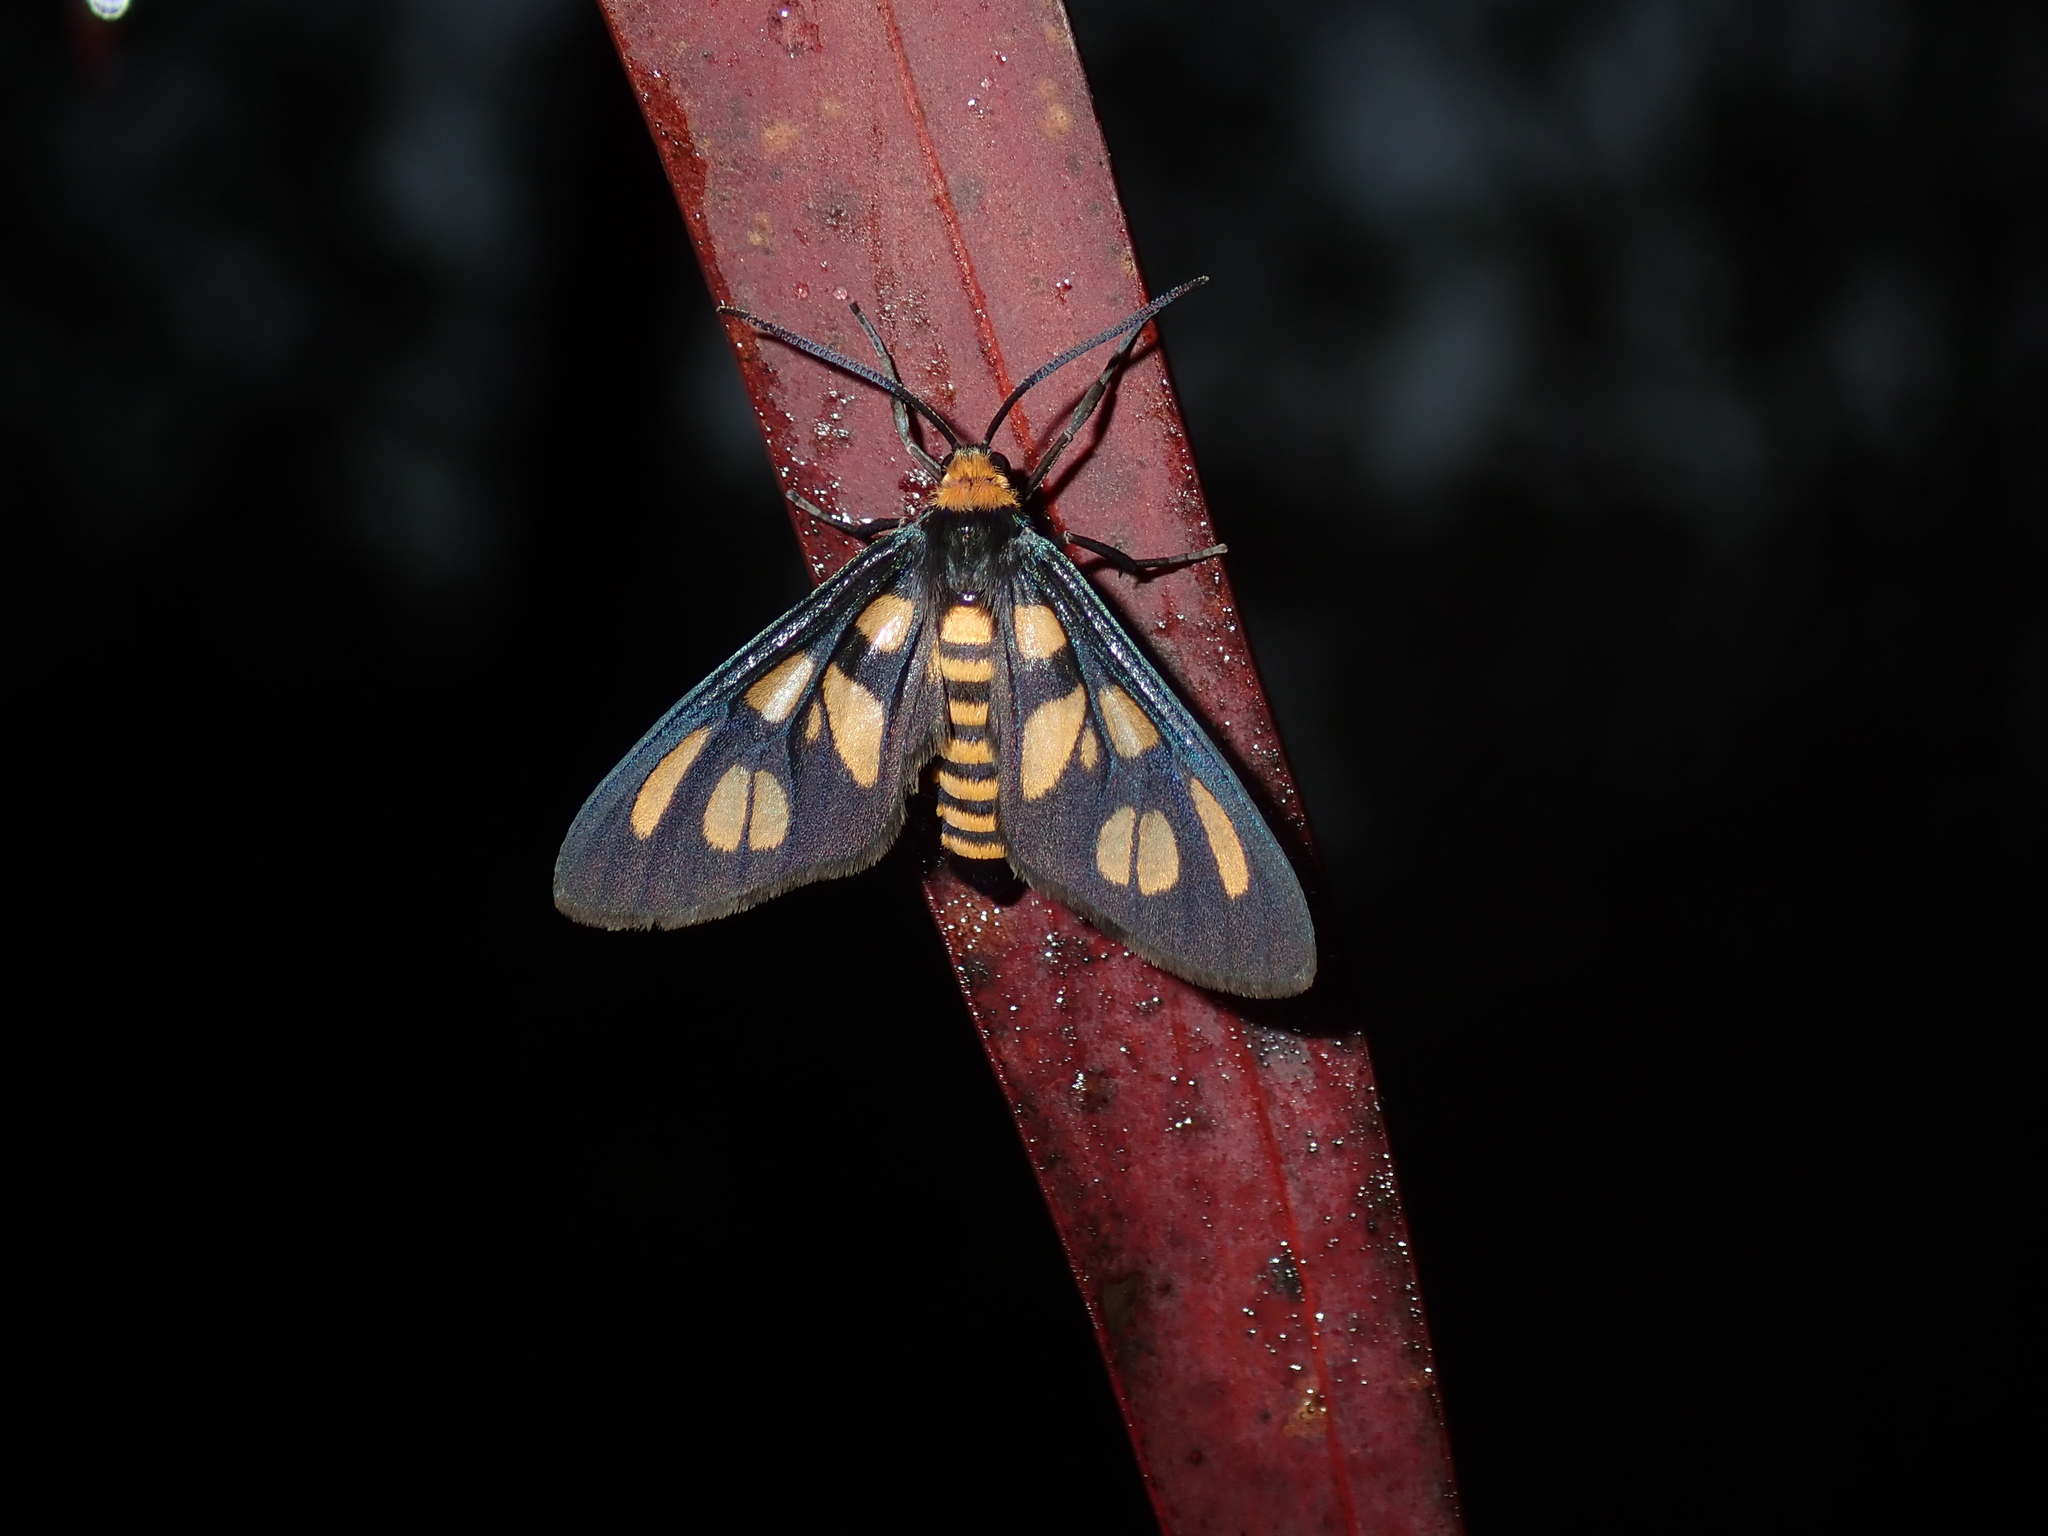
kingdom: Animalia
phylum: Arthropoda
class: Insecta
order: Lepidoptera
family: Erebidae
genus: Amata
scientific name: Amata aperta
